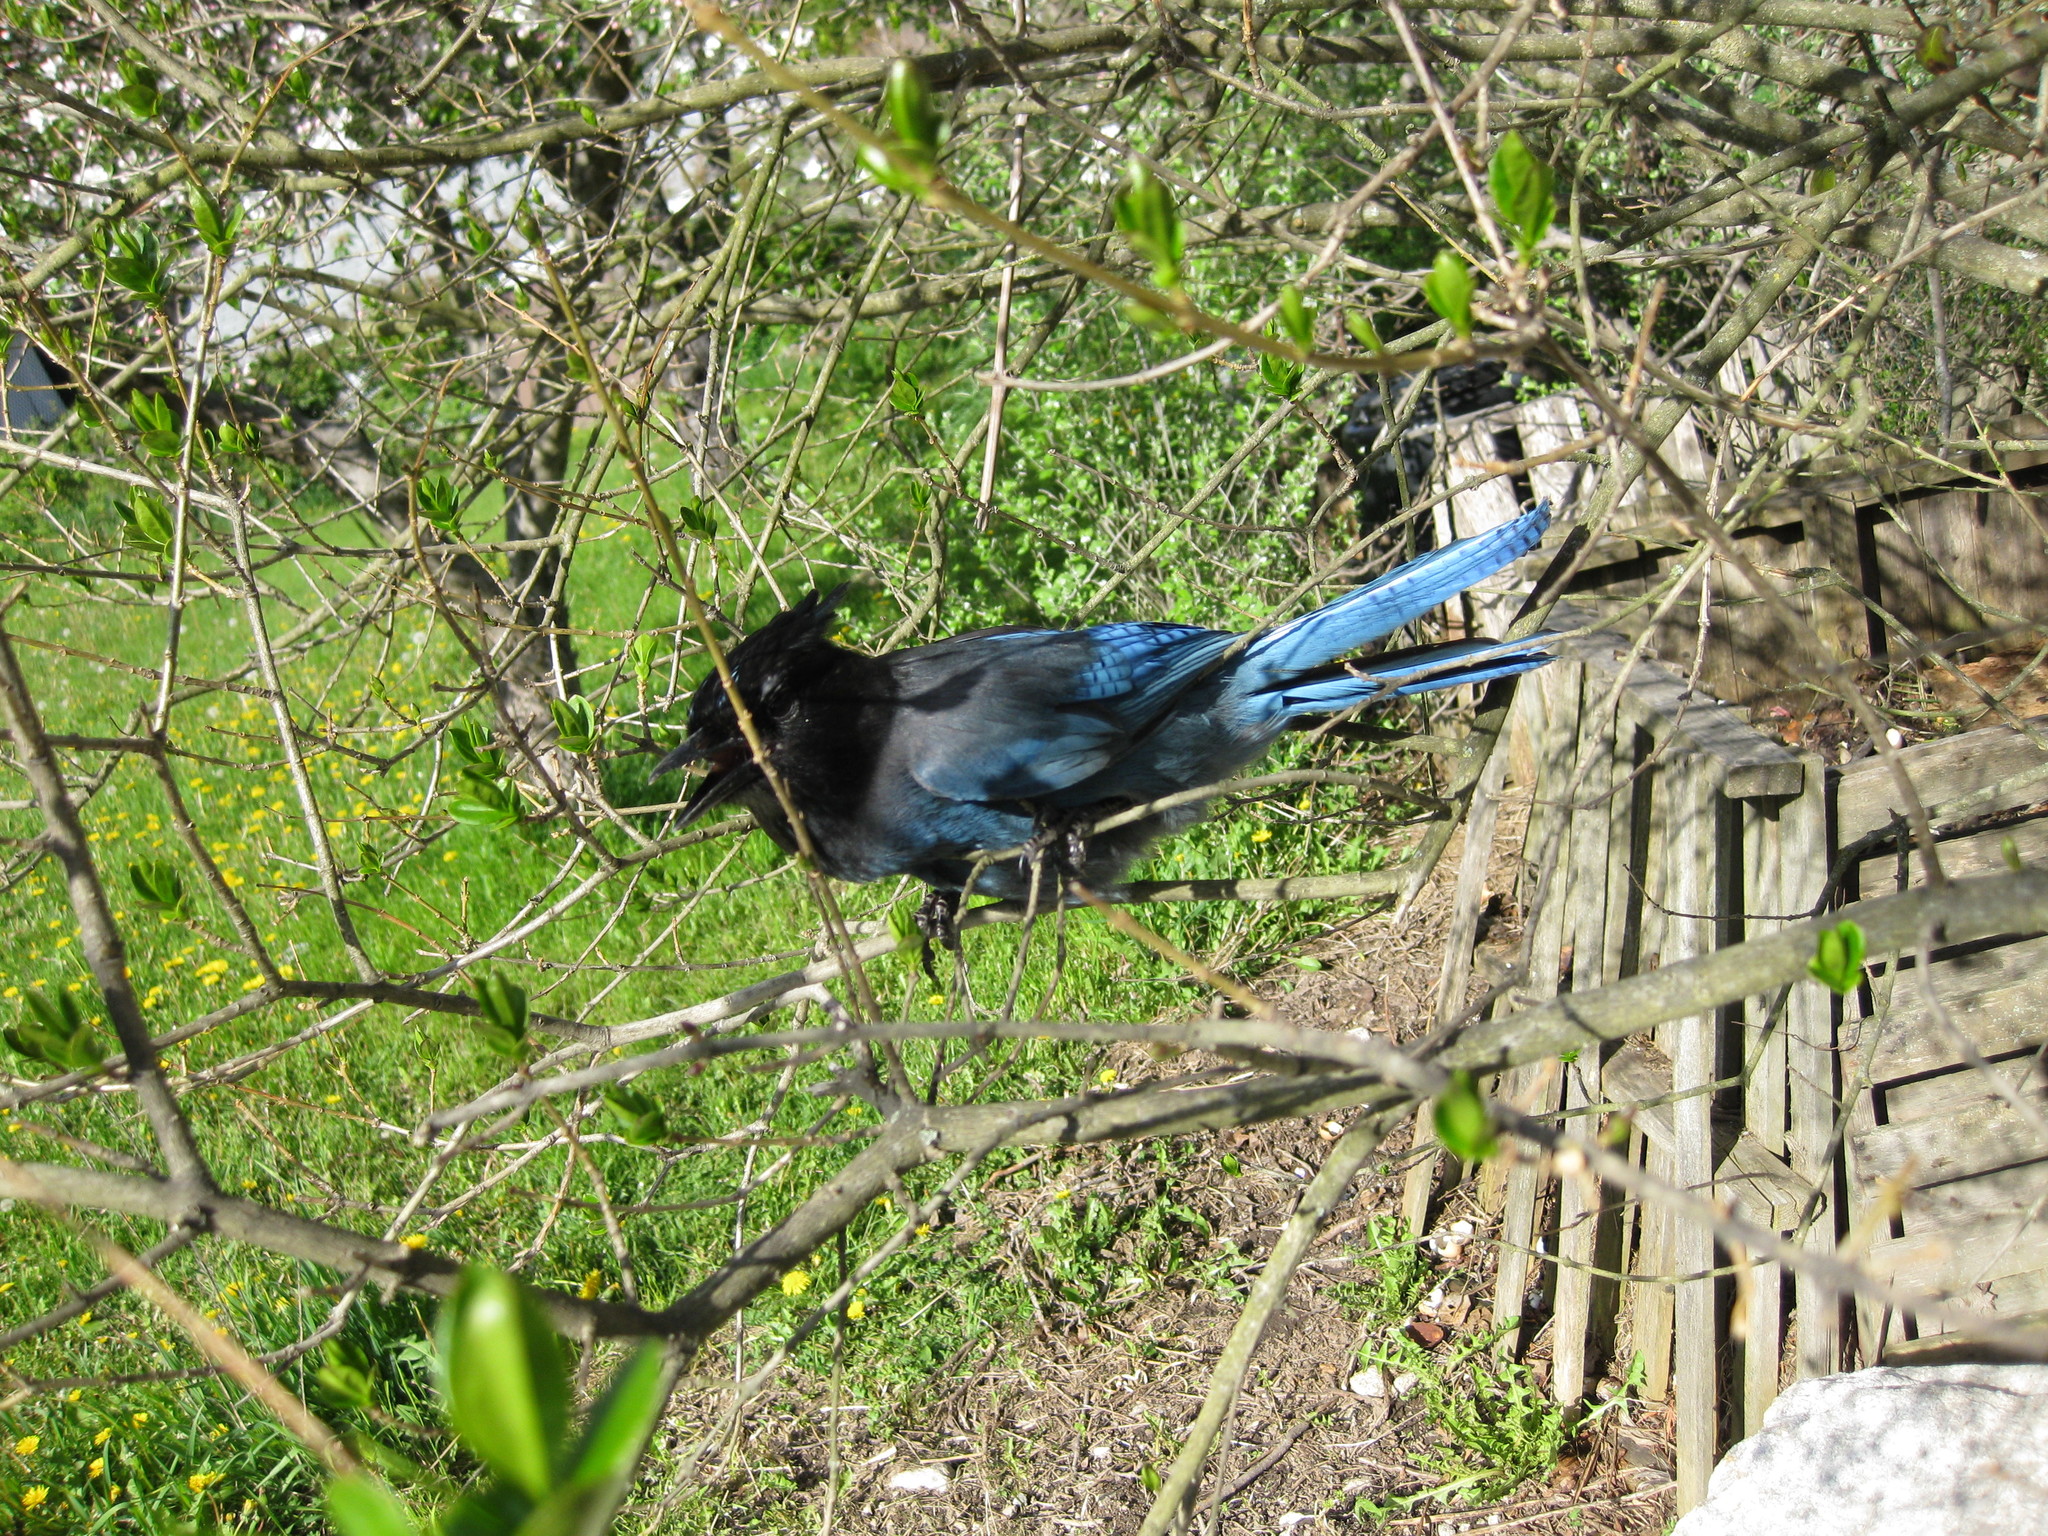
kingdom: Animalia
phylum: Chordata
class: Aves
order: Passeriformes
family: Corvidae
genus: Cyanocitta
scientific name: Cyanocitta stelleri
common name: Steller's jay
